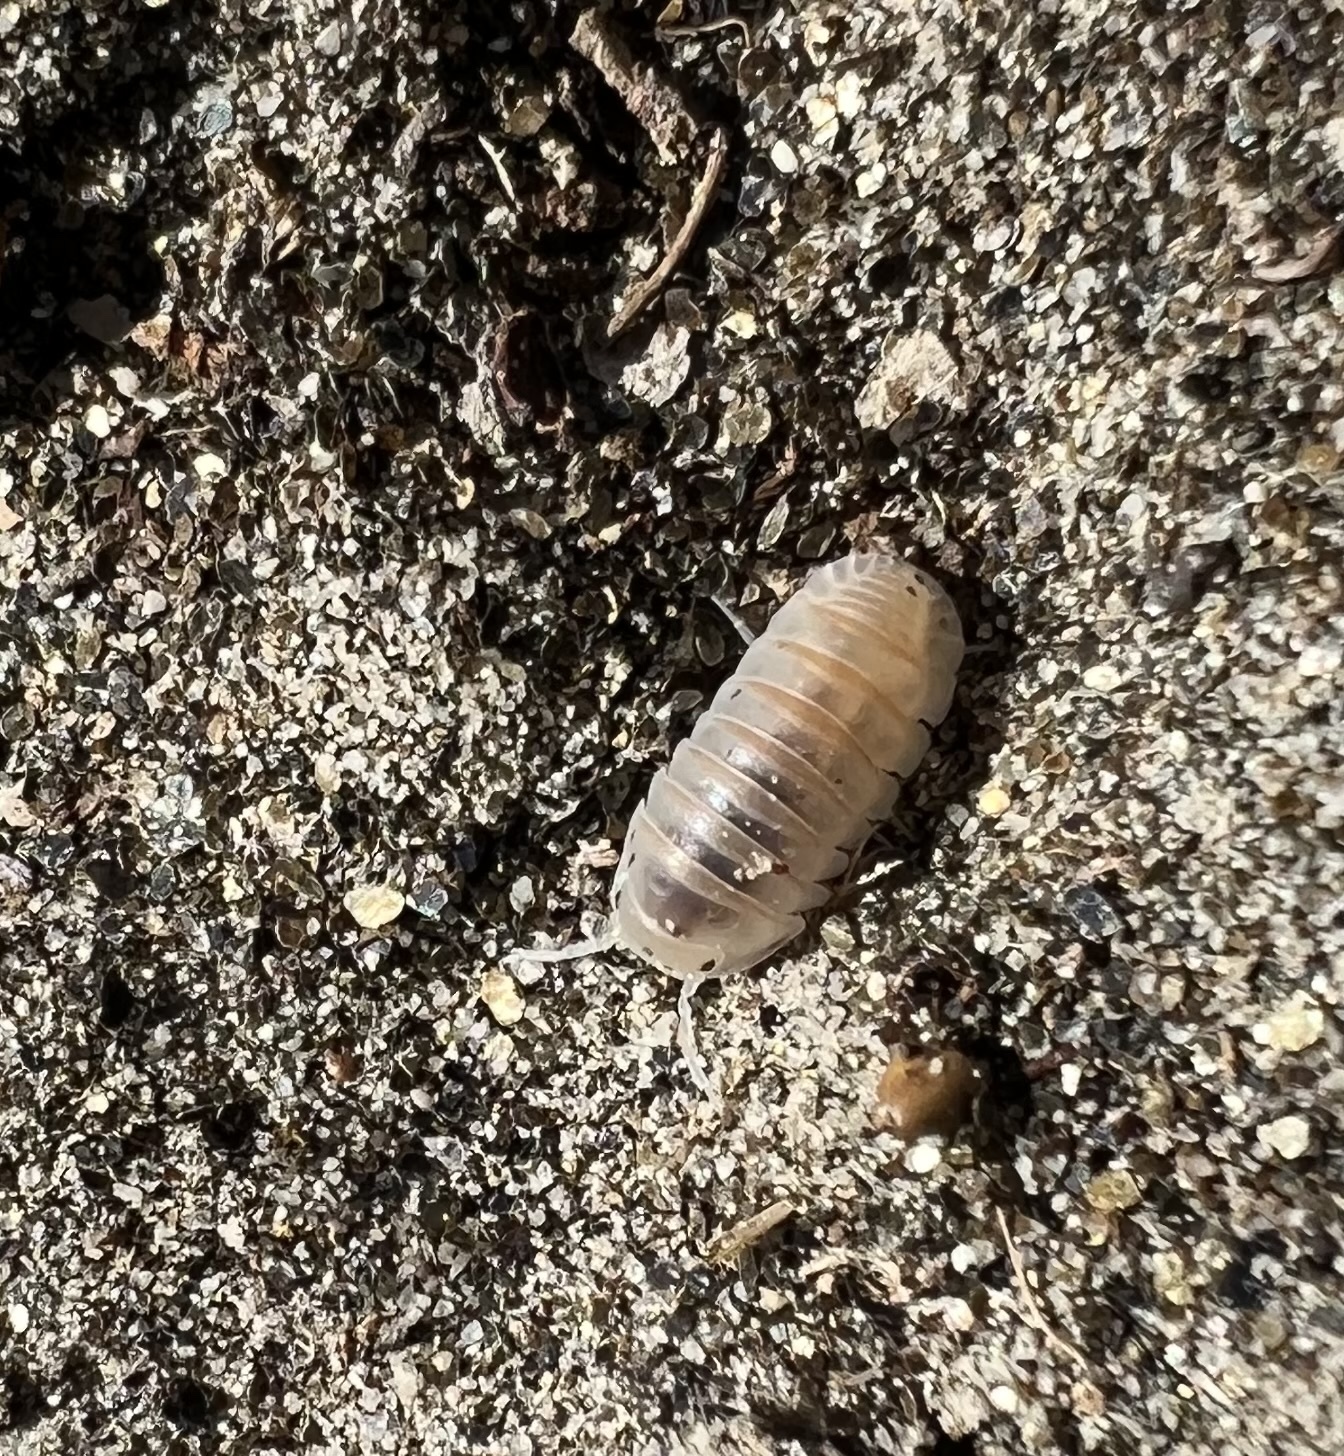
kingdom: Animalia
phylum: Arthropoda
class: Malacostraca
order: Isopoda
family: Armadillidae
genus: Cubaris
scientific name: Cubaris benitensis
